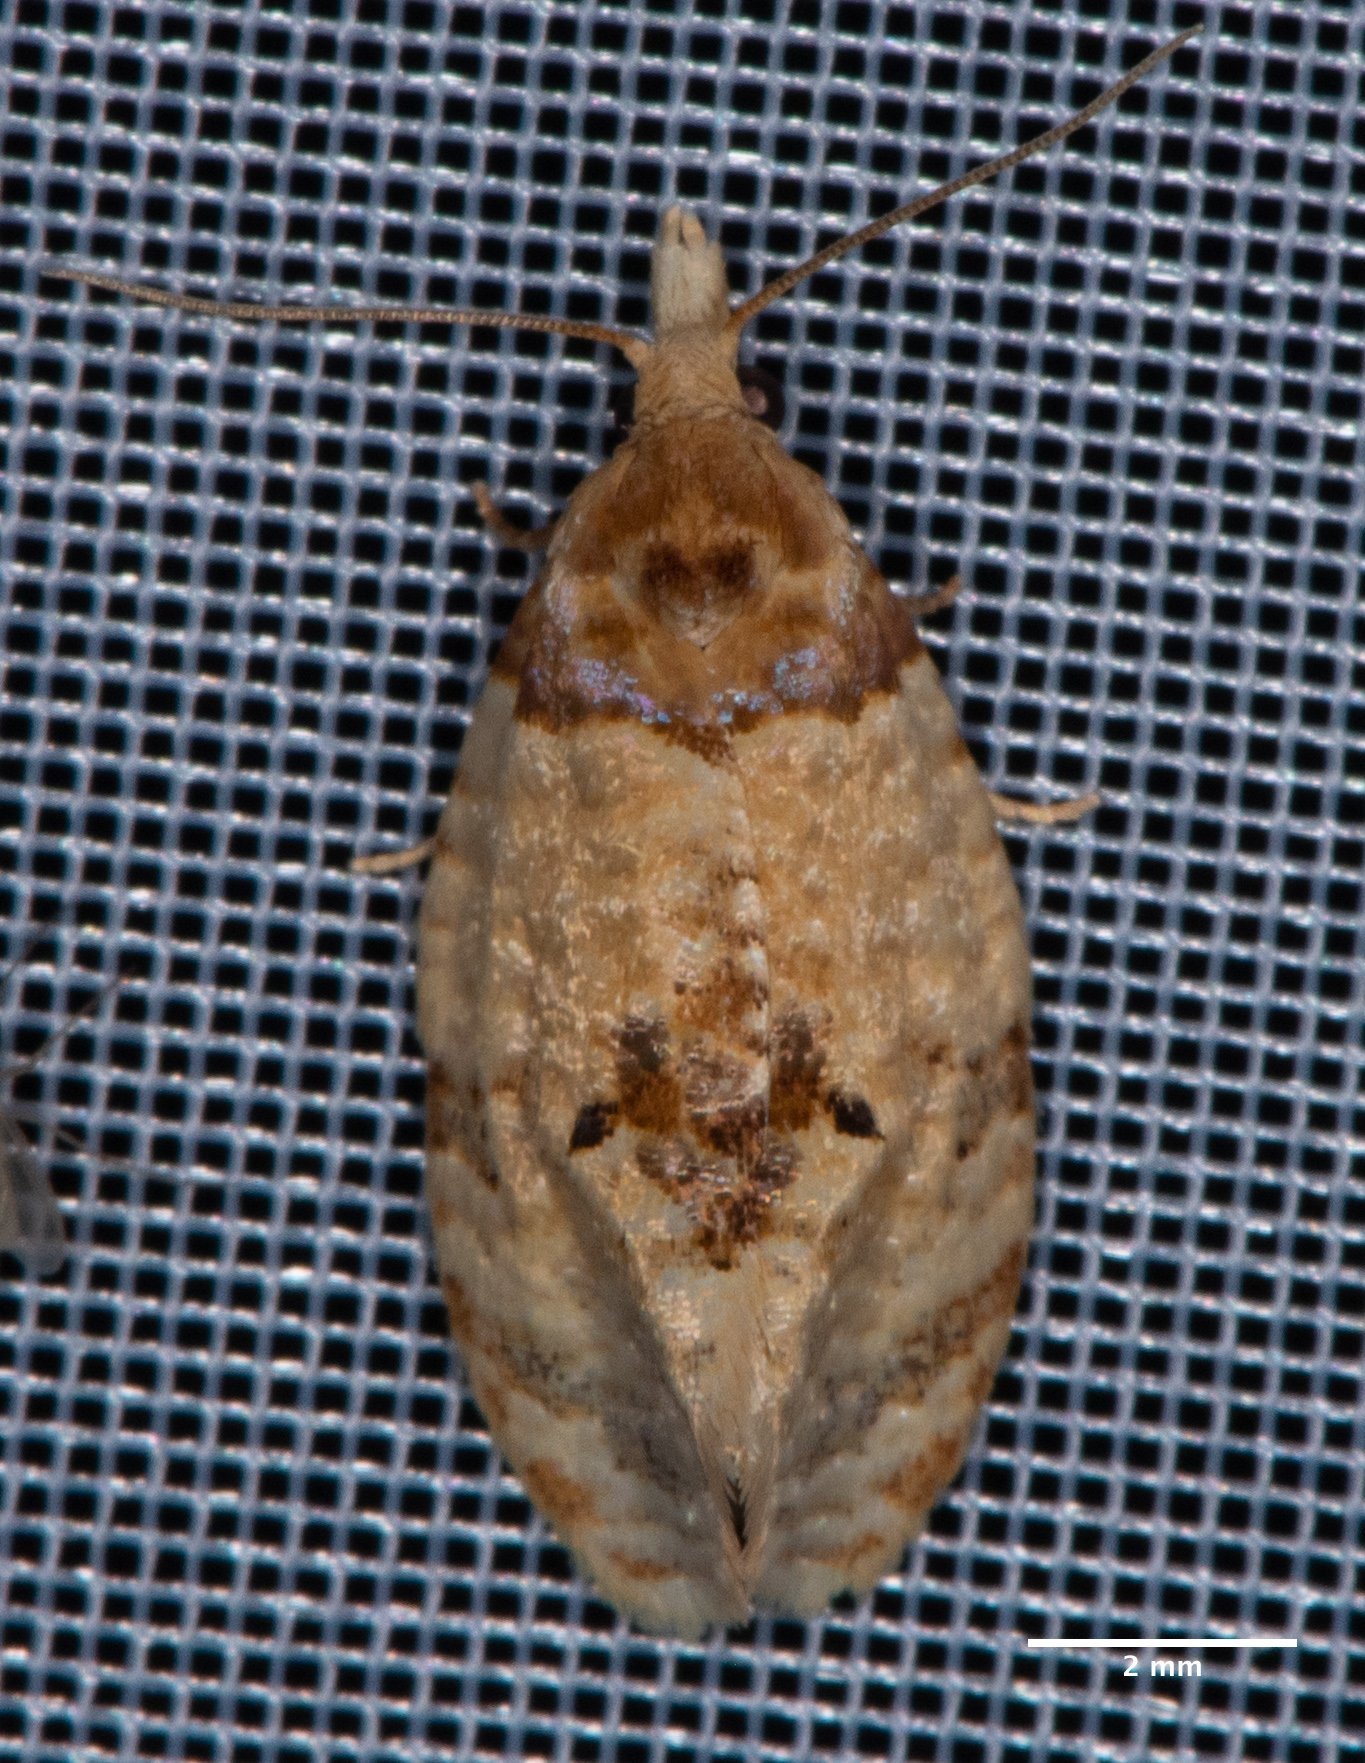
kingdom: Animalia
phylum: Arthropoda
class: Insecta
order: Lepidoptera
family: Tortricidae
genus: Henricus
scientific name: Henricus umbrabasana
